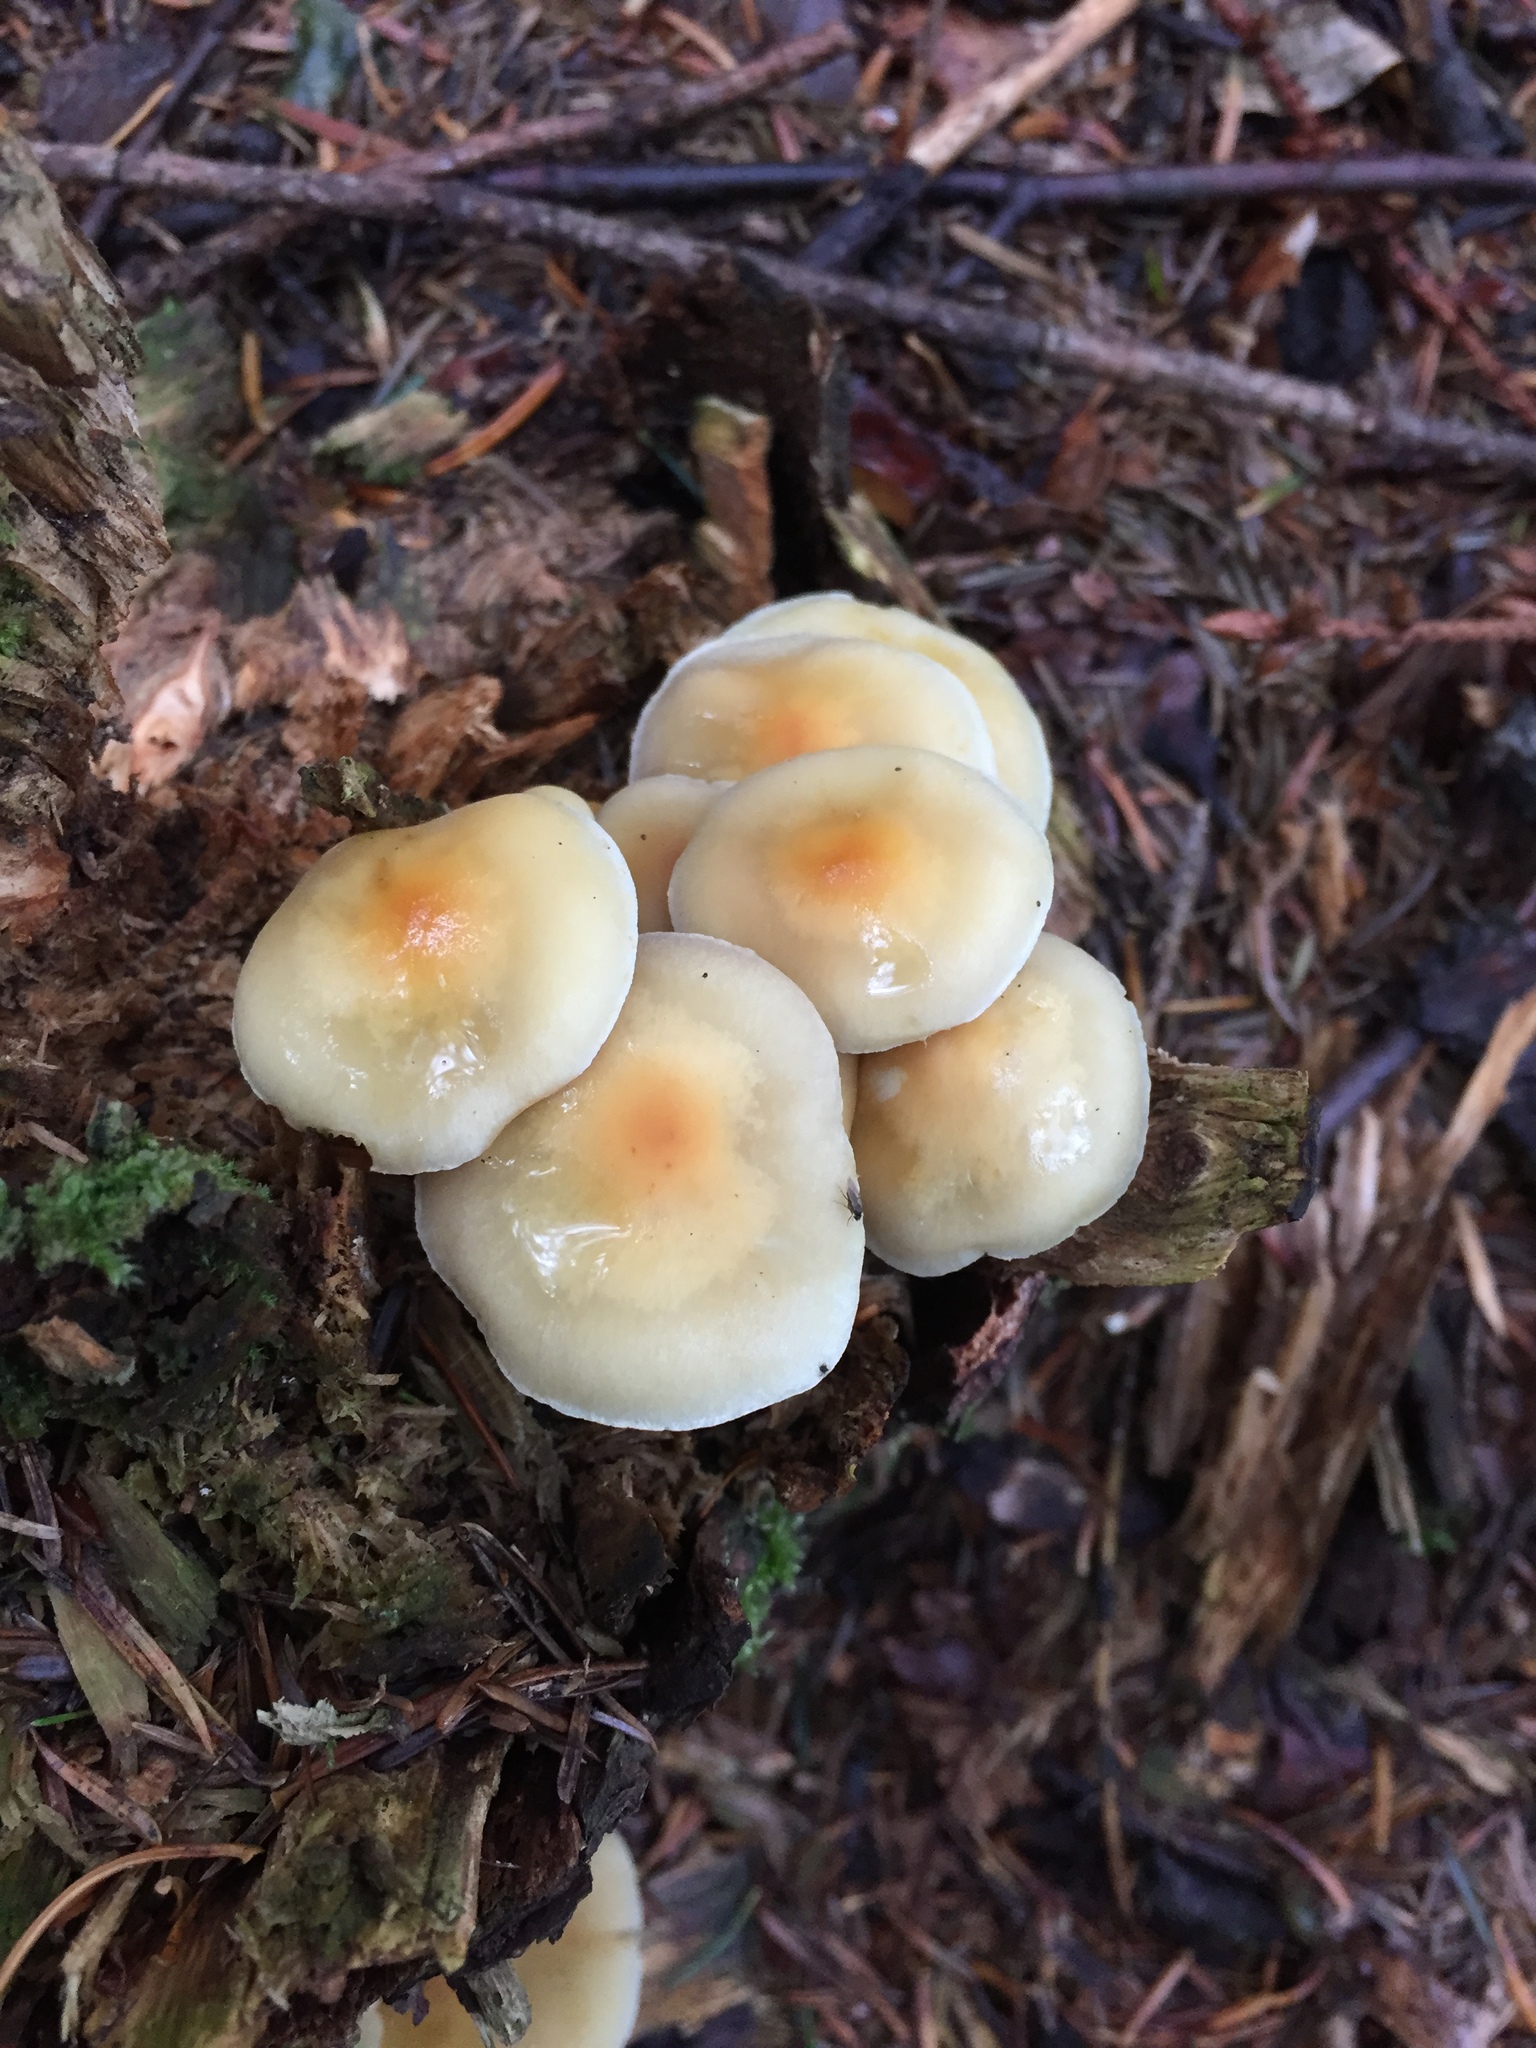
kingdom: Fungi
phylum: Basidiomycota
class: Agaricomycetes
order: Agaricales
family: Strophariaceae
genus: Hypholoma
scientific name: Hypholoma fasciculare
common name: Sulphur tuft
